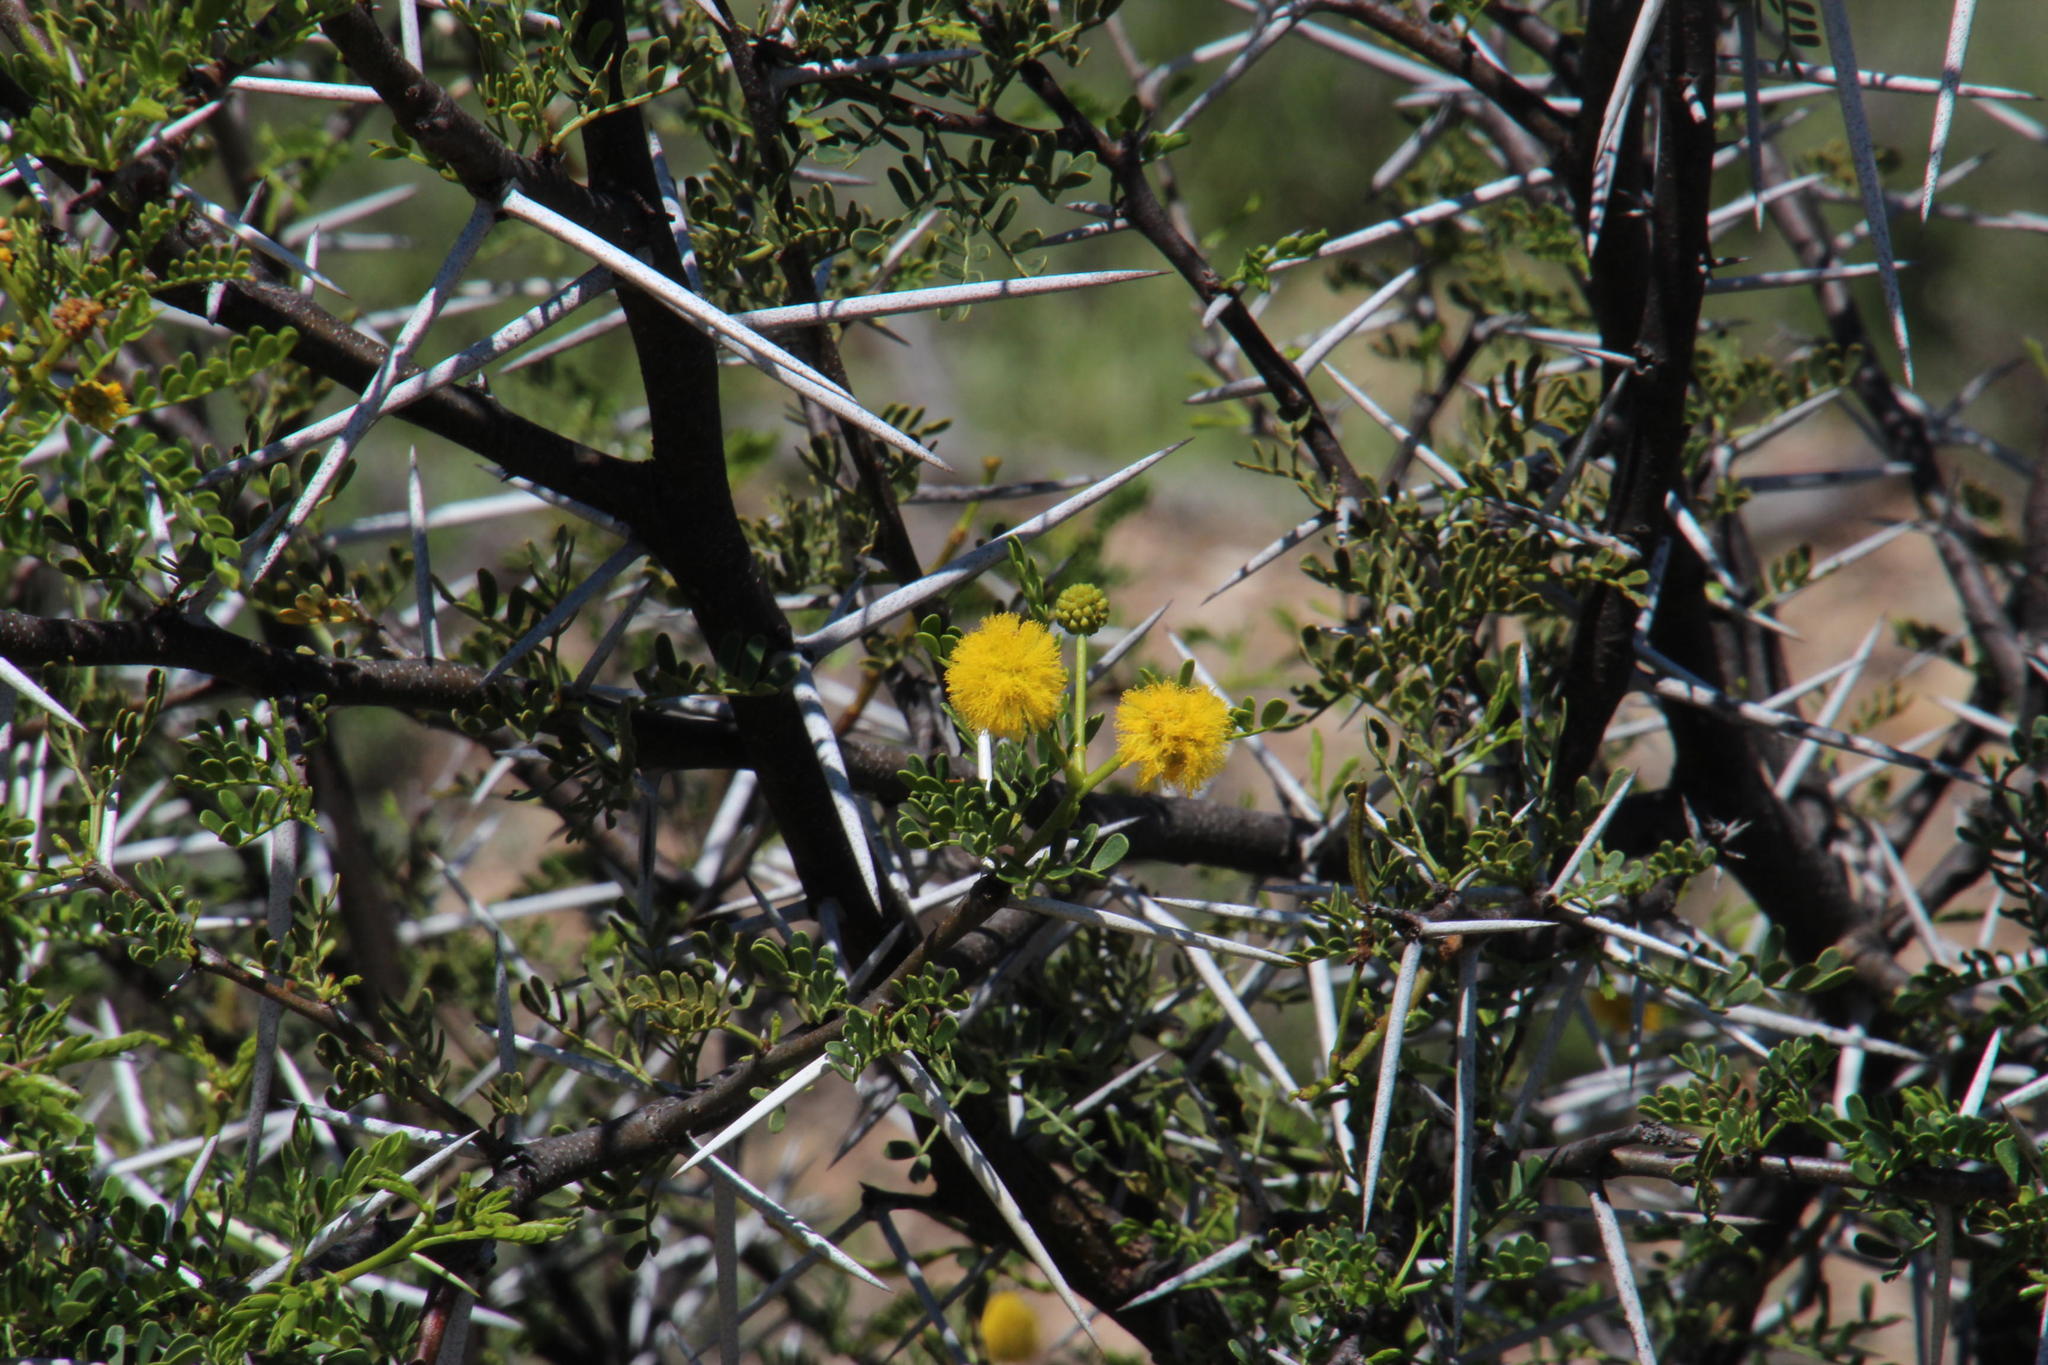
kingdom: Plantae
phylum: Tracheophyta
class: Magnoliopsida
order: Fabales
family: Fabaceae
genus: Vachellia
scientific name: Vachellia karroo
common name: Sweet thorn
